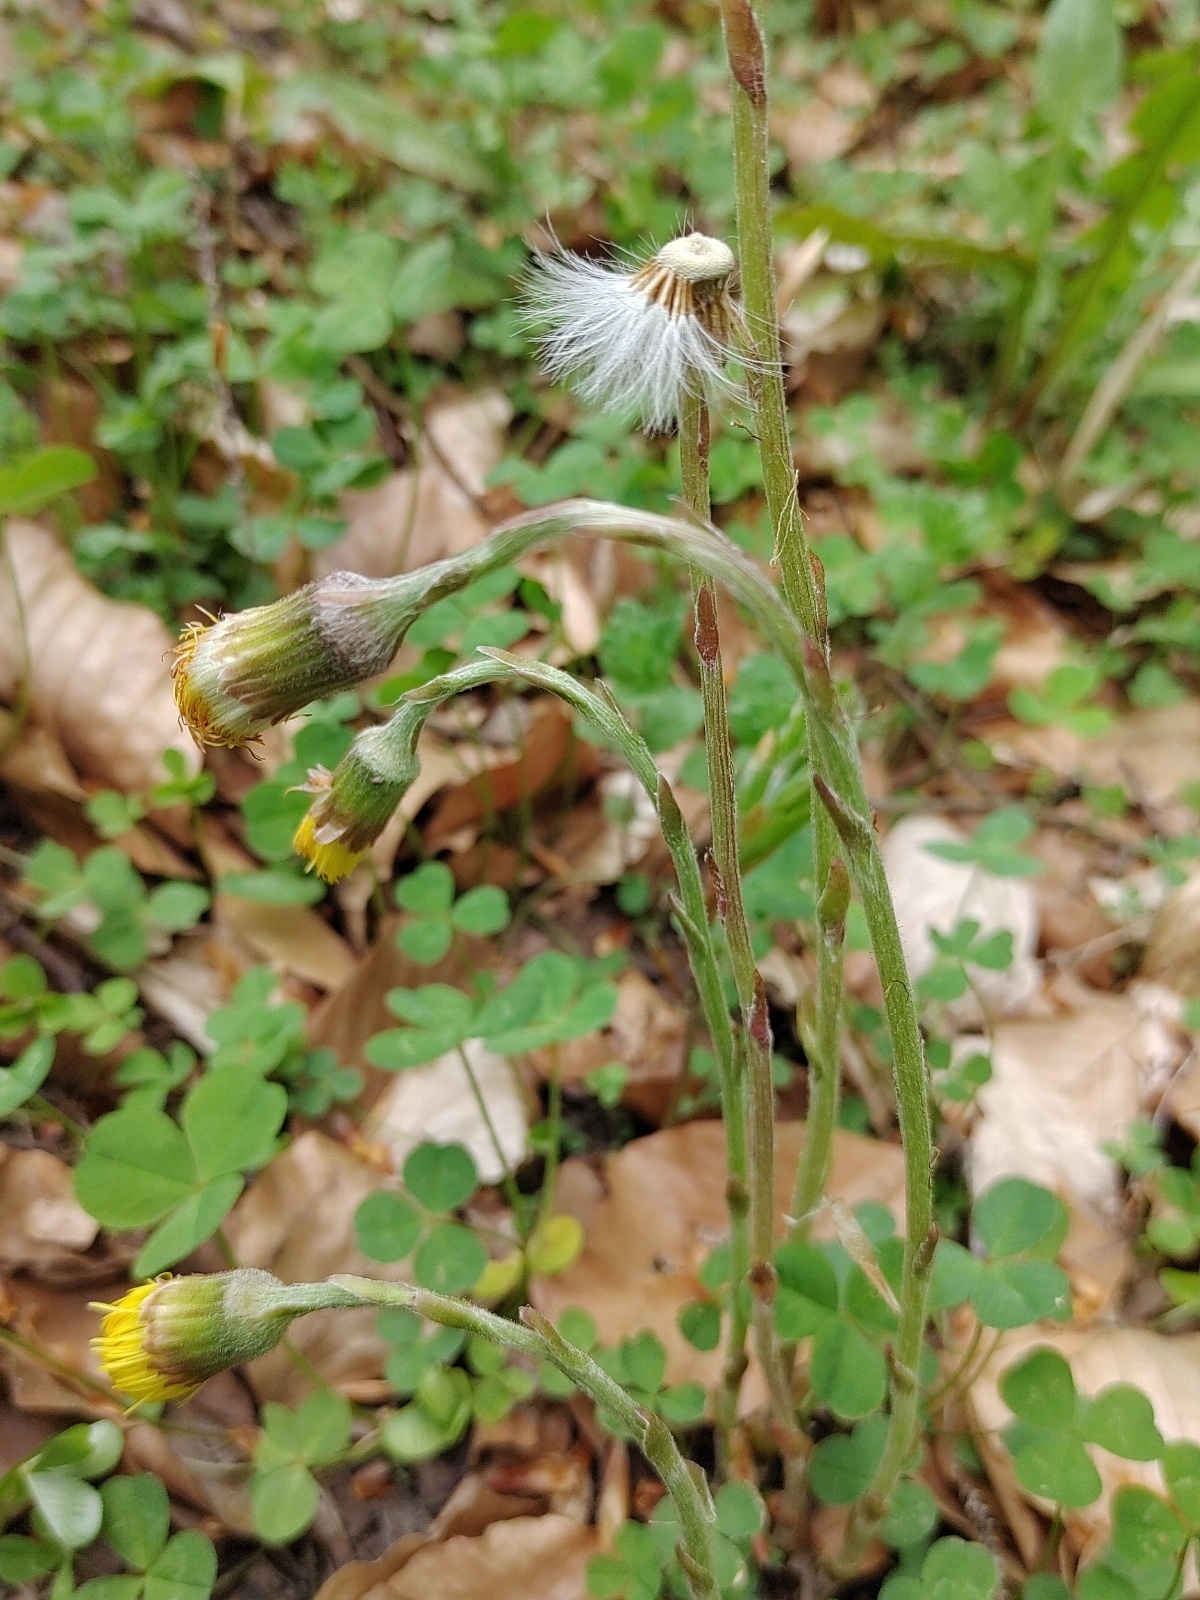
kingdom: Plantae
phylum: Tracheophyta
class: Magnoliopsida
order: Asterales
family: Asteraceae
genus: Tussilago
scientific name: Tussilago farfara
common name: Coltsfoot
